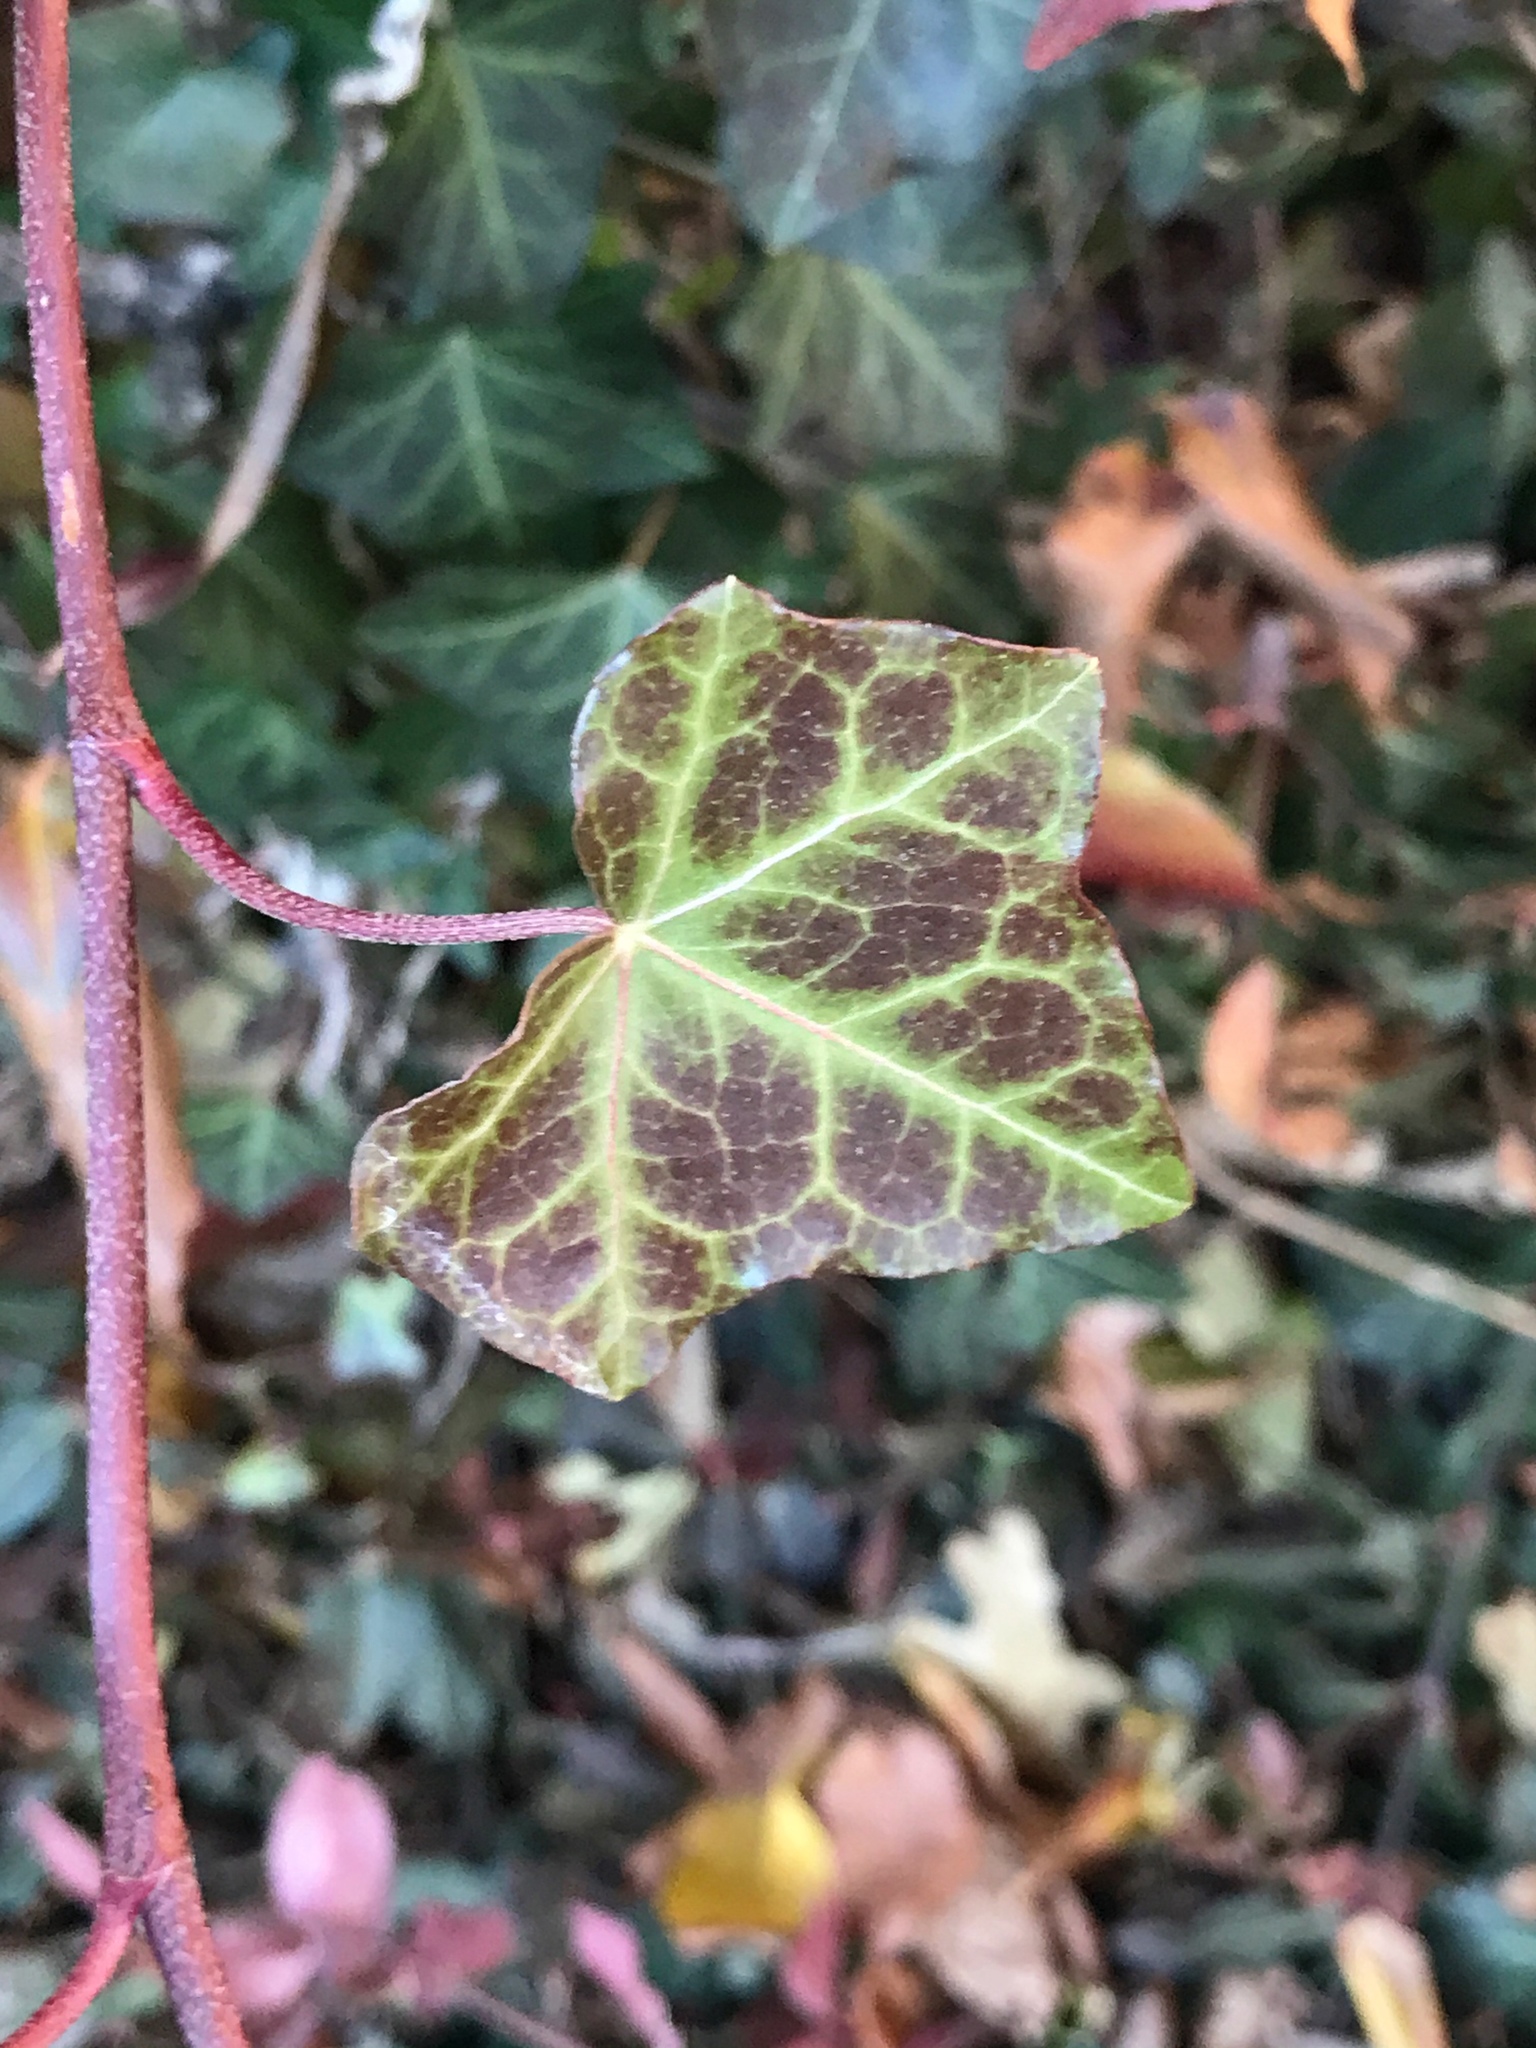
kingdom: Plantae
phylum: Tracheophyta
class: Magnoliopsida
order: Apiales
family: Araliaceae
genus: Hedera
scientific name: Hedera helix
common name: Ivy
